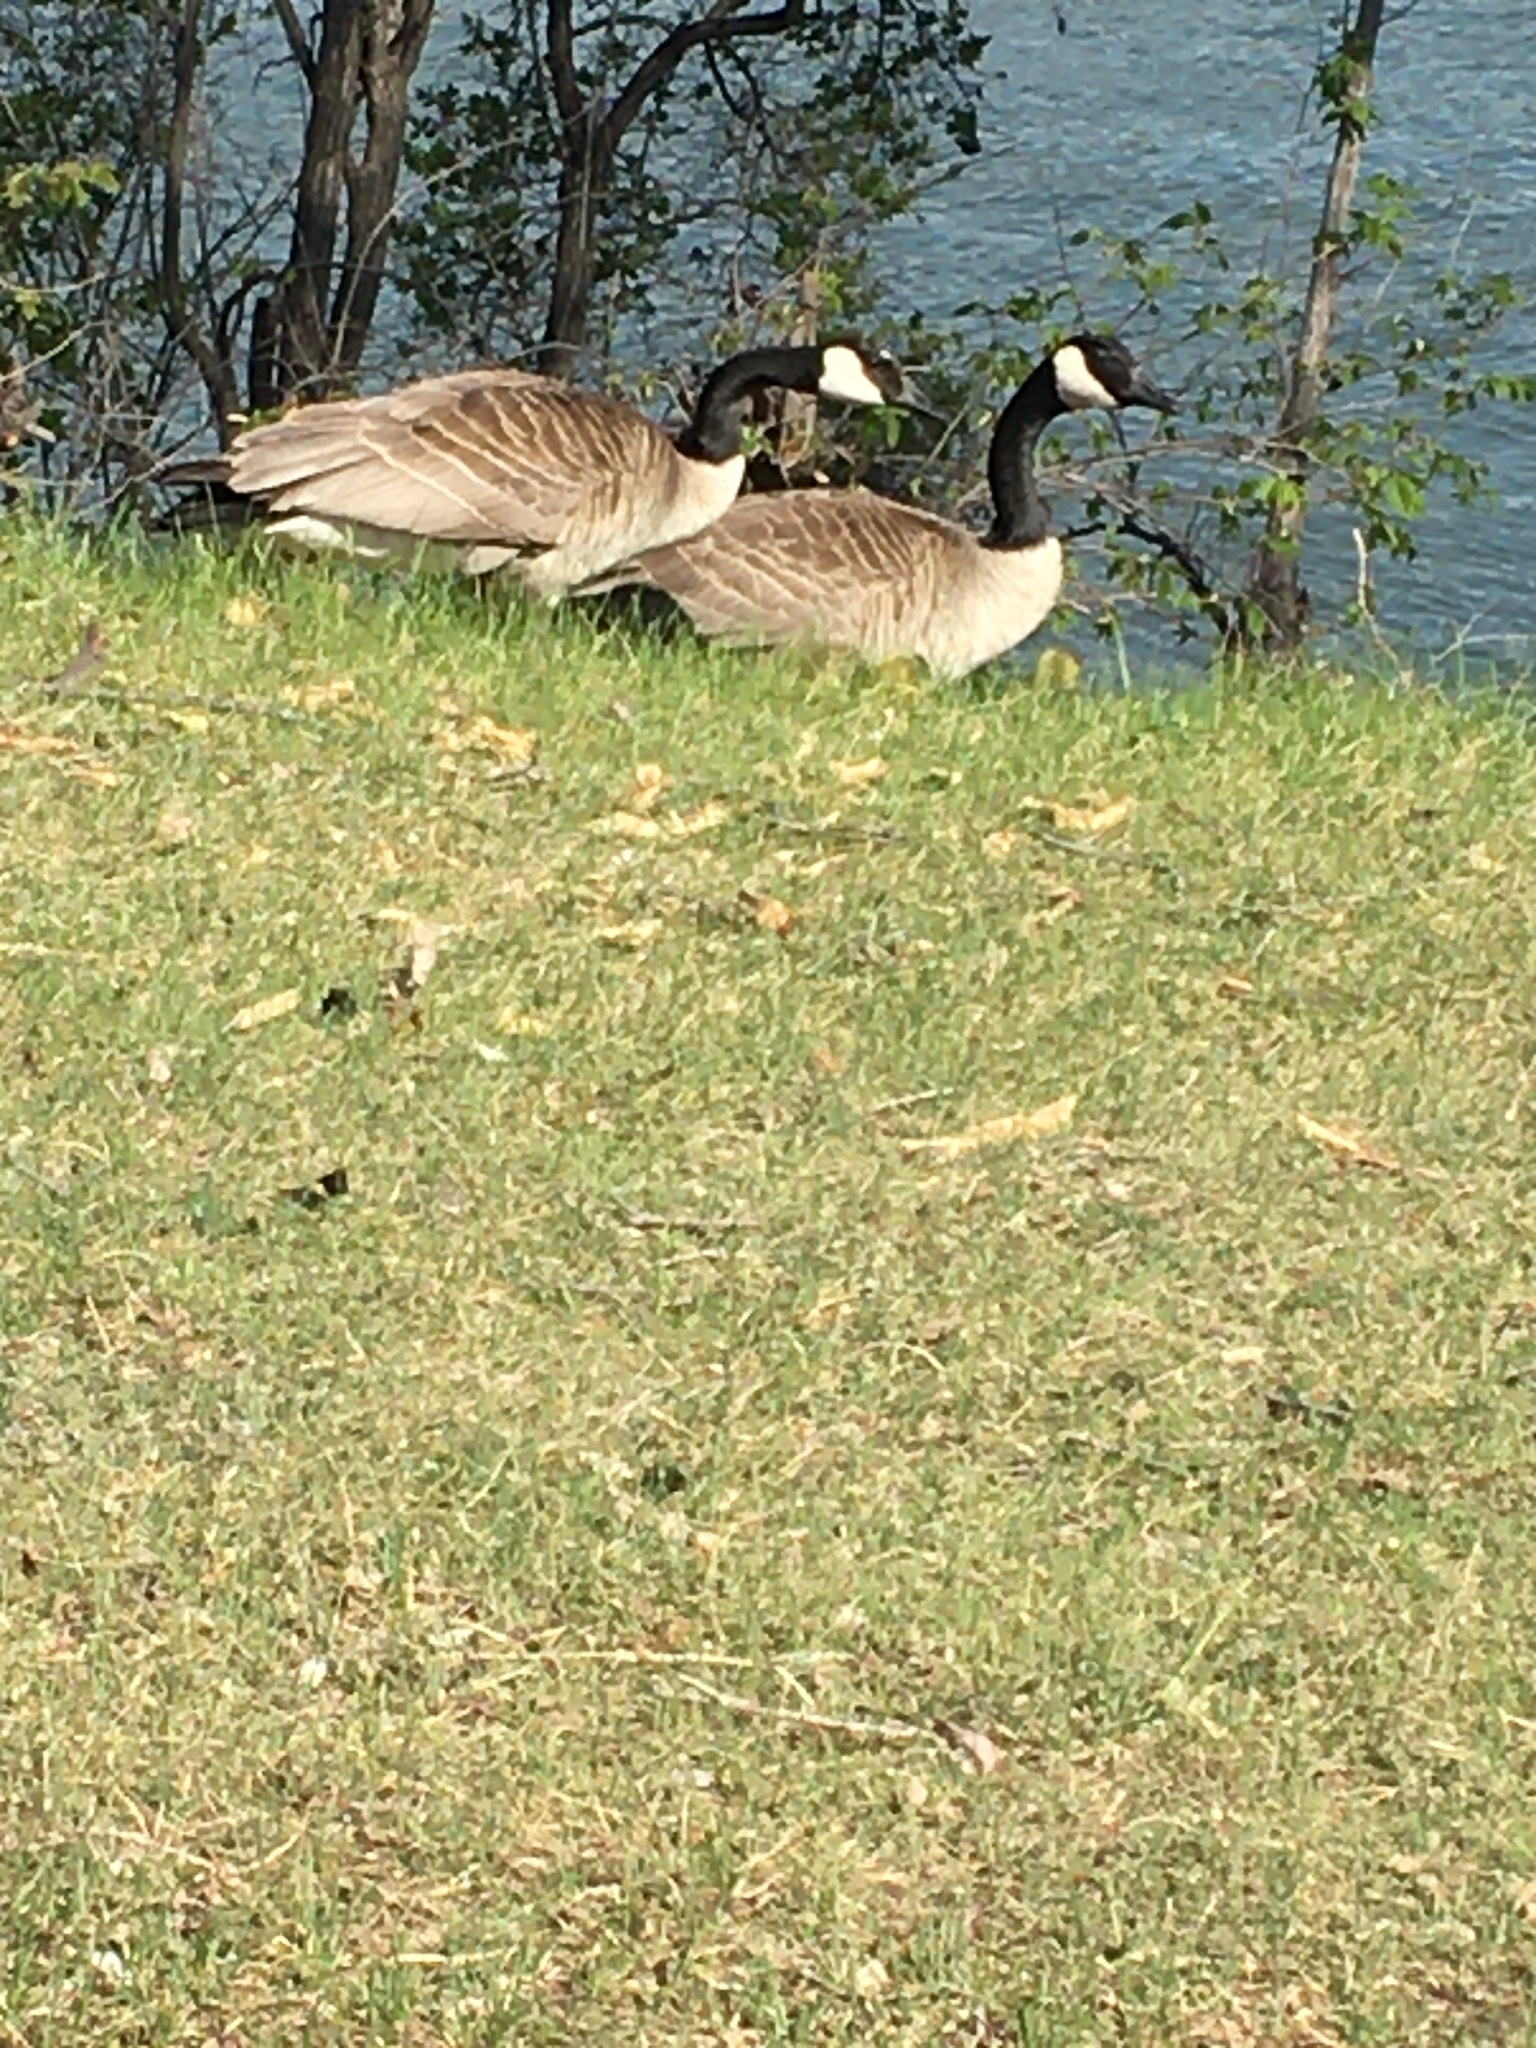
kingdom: Animalia
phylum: Chordata
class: Aves
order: Anseriformes
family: Anatidae
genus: Branta
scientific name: Branta canadensis
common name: Canada goose
